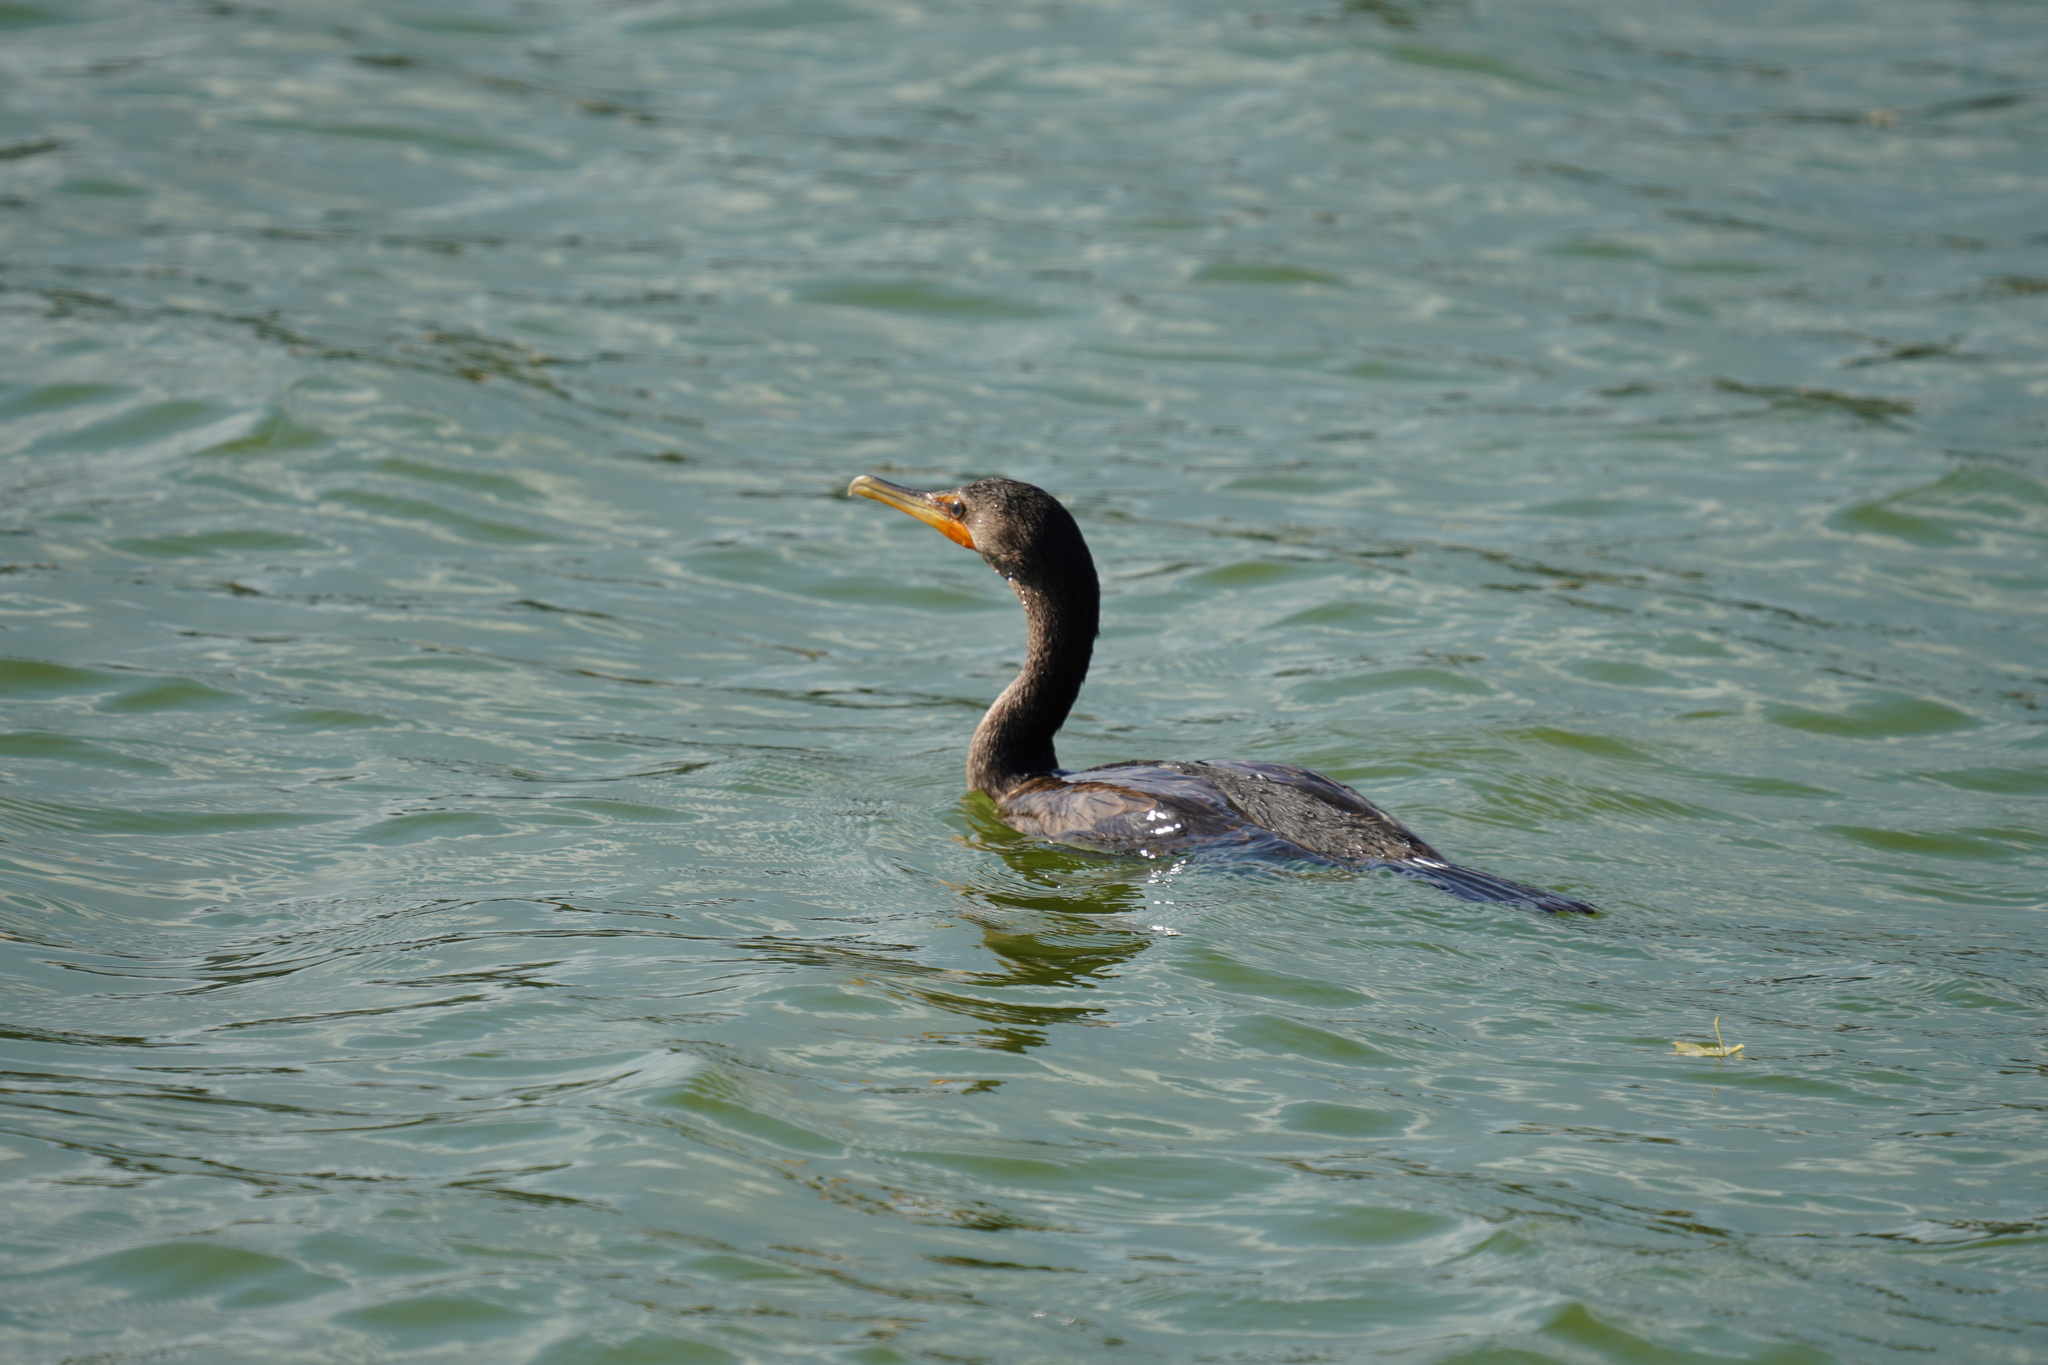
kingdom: Animalia
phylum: Chordata
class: Aves
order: Suliformes
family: Phalacrocoracidae
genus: Phalacrocorax
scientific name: Phalacrocorax auritus
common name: Double-crested cormorant
